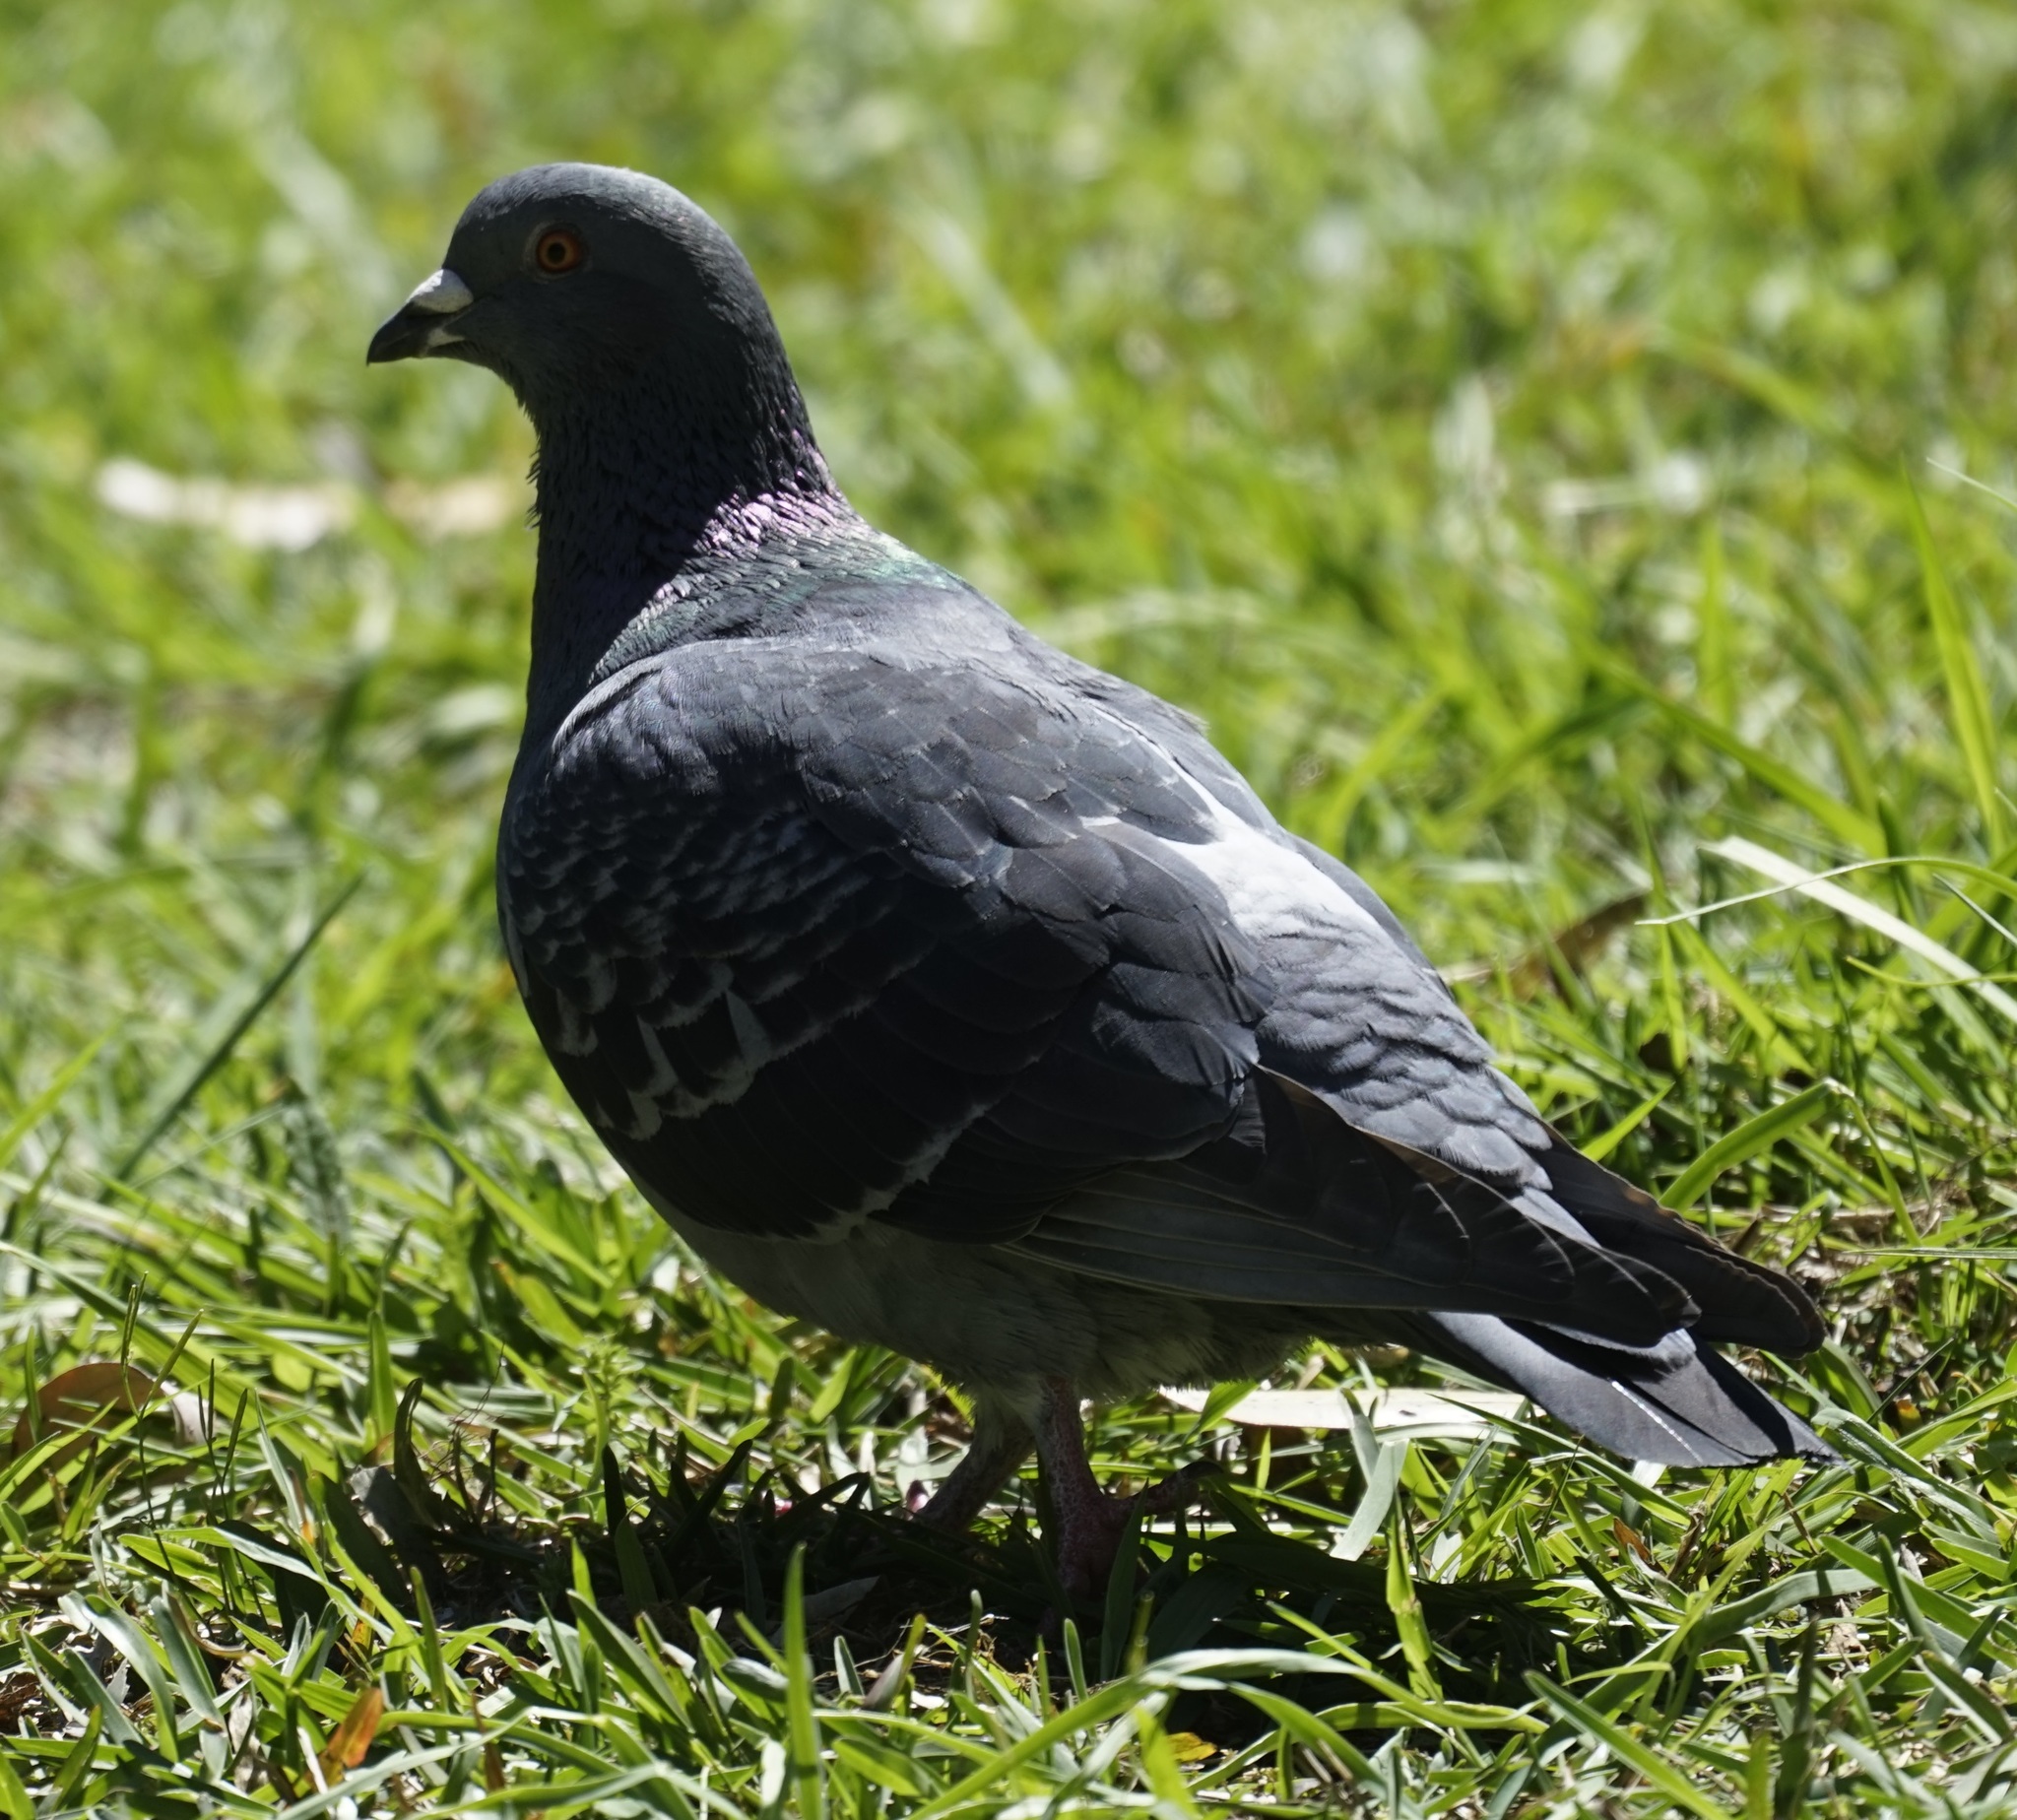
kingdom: Animalia
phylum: Chordata
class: Aves
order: Columbiformes
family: Columbidae
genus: Columba
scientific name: Columba livia
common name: Rock pigeon
